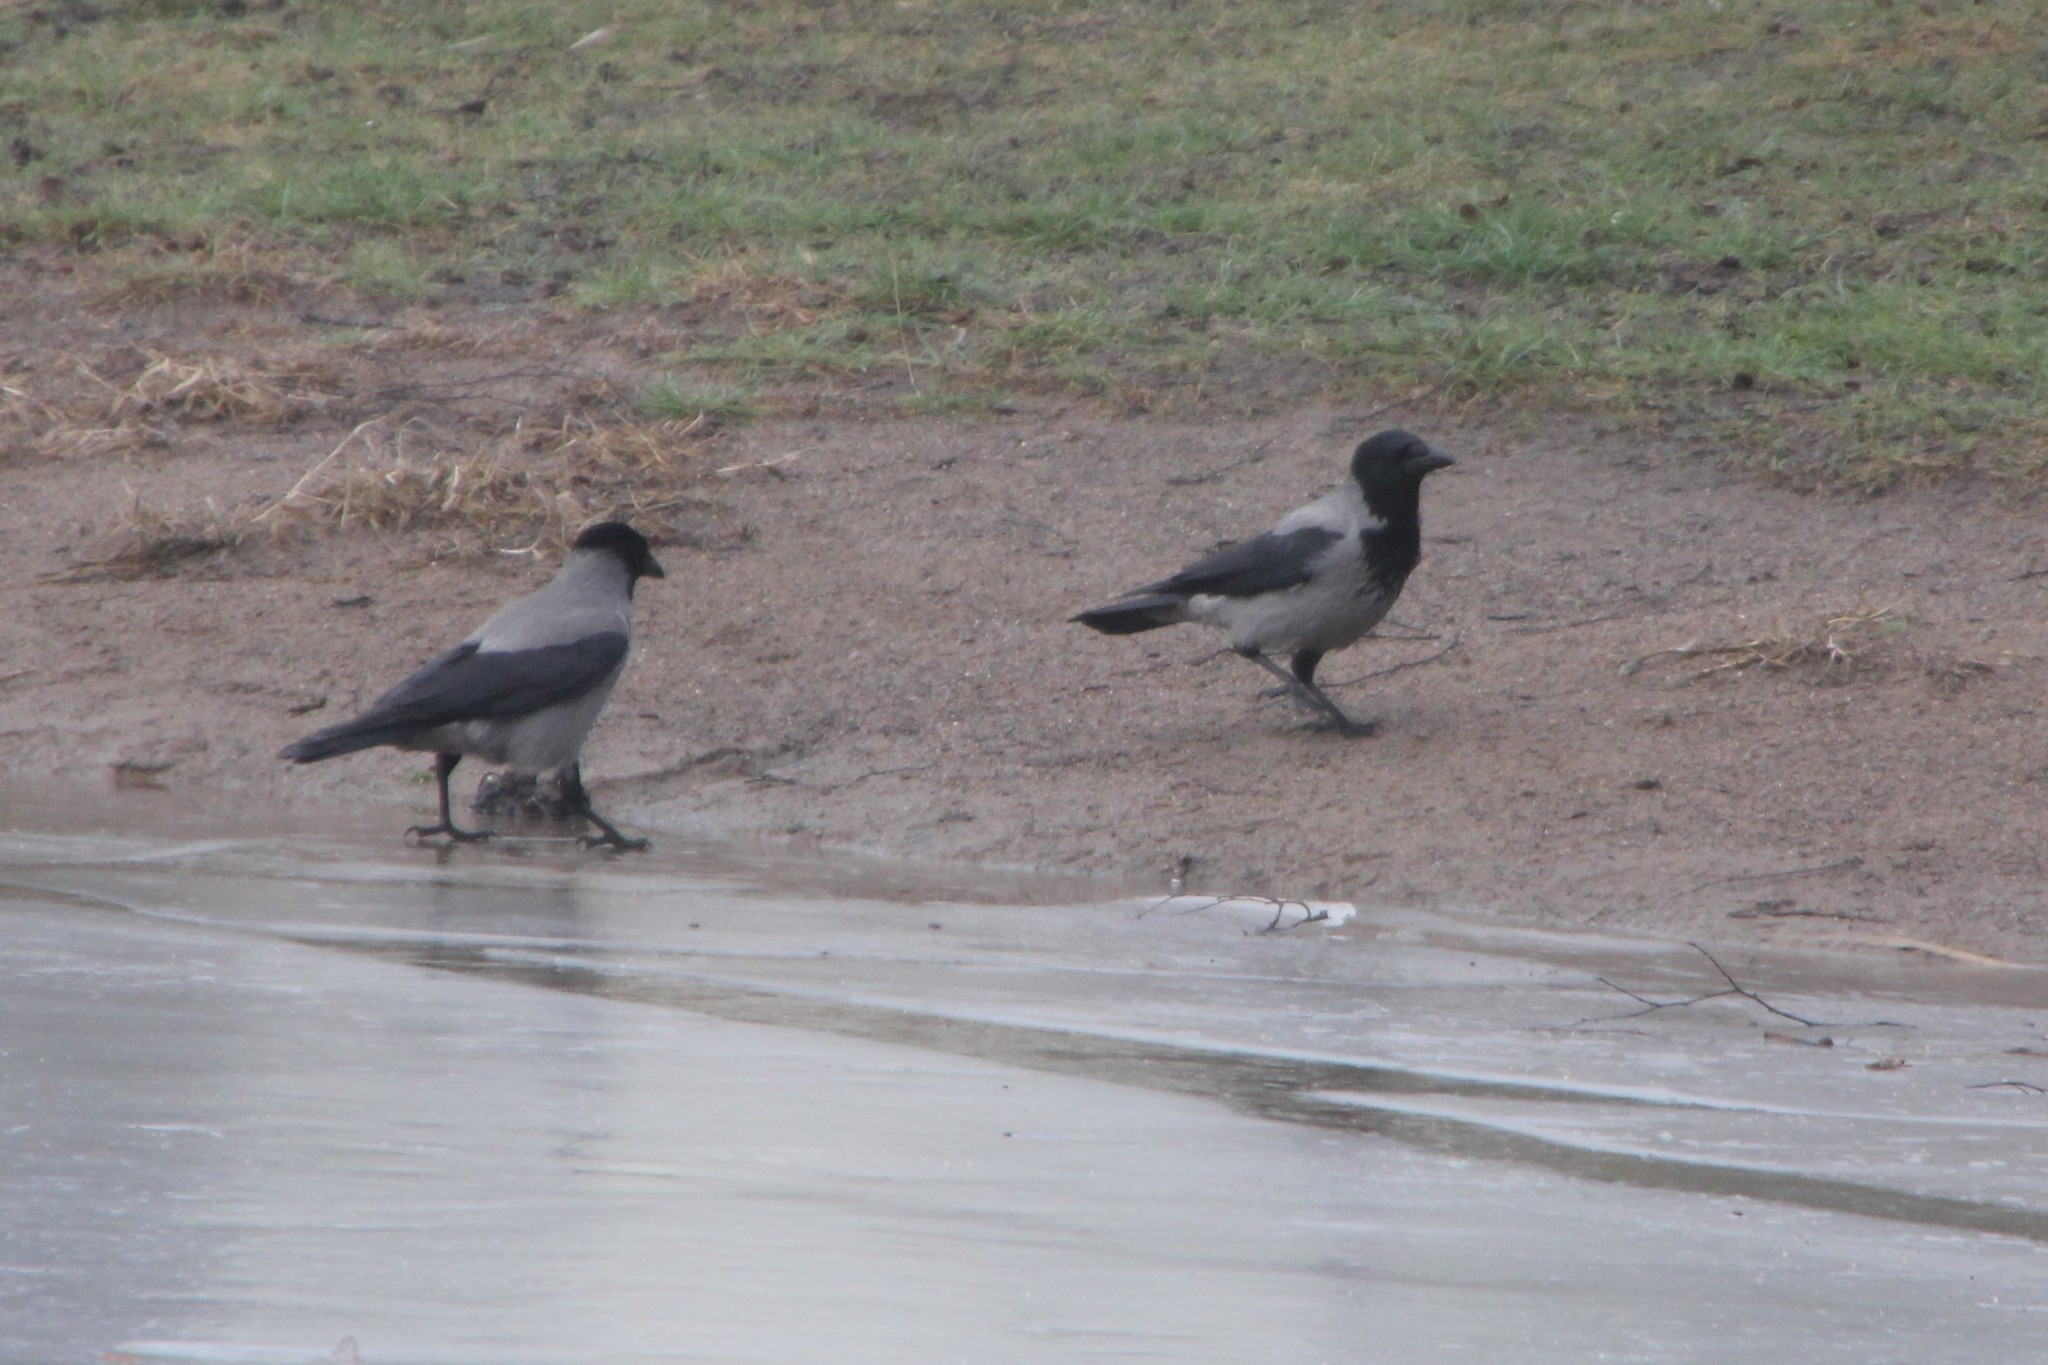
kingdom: Animalia
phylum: Chordata
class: Aves
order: Passeriformes
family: Corvidae
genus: Corvus
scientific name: Corvus cornix
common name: Hooded crow
